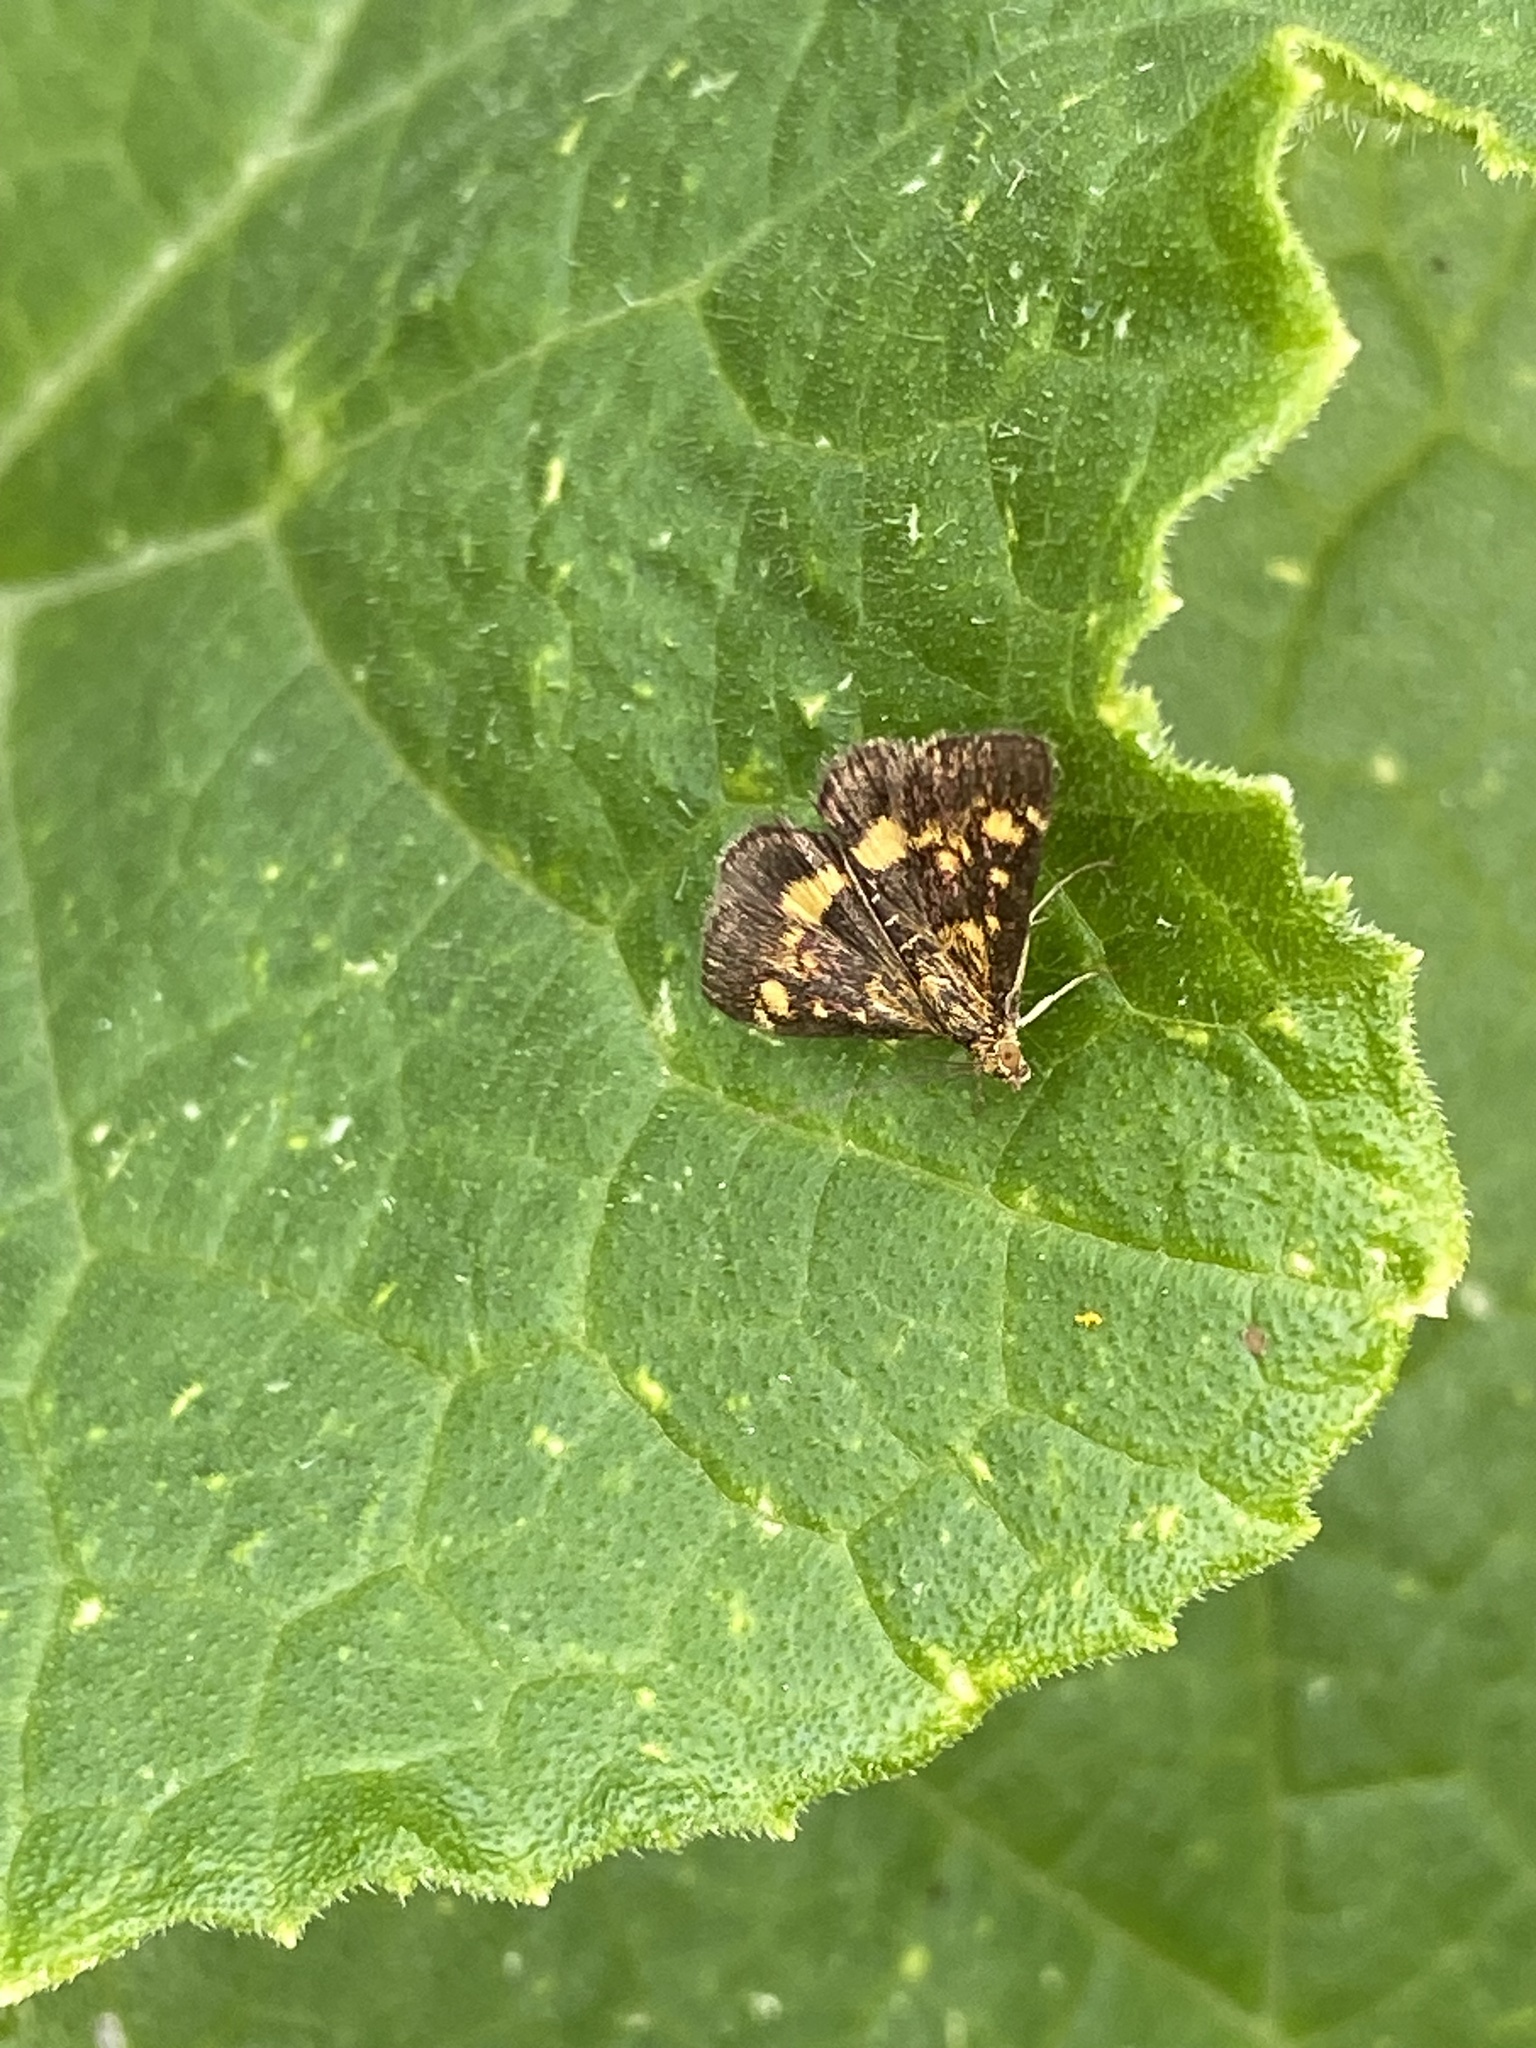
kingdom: Animalia
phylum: Arthropoda
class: Insecta
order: Lepidoptera
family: Crambidae
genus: Pyrausta
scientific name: Pyrausta aurata
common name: Small purple & gold
